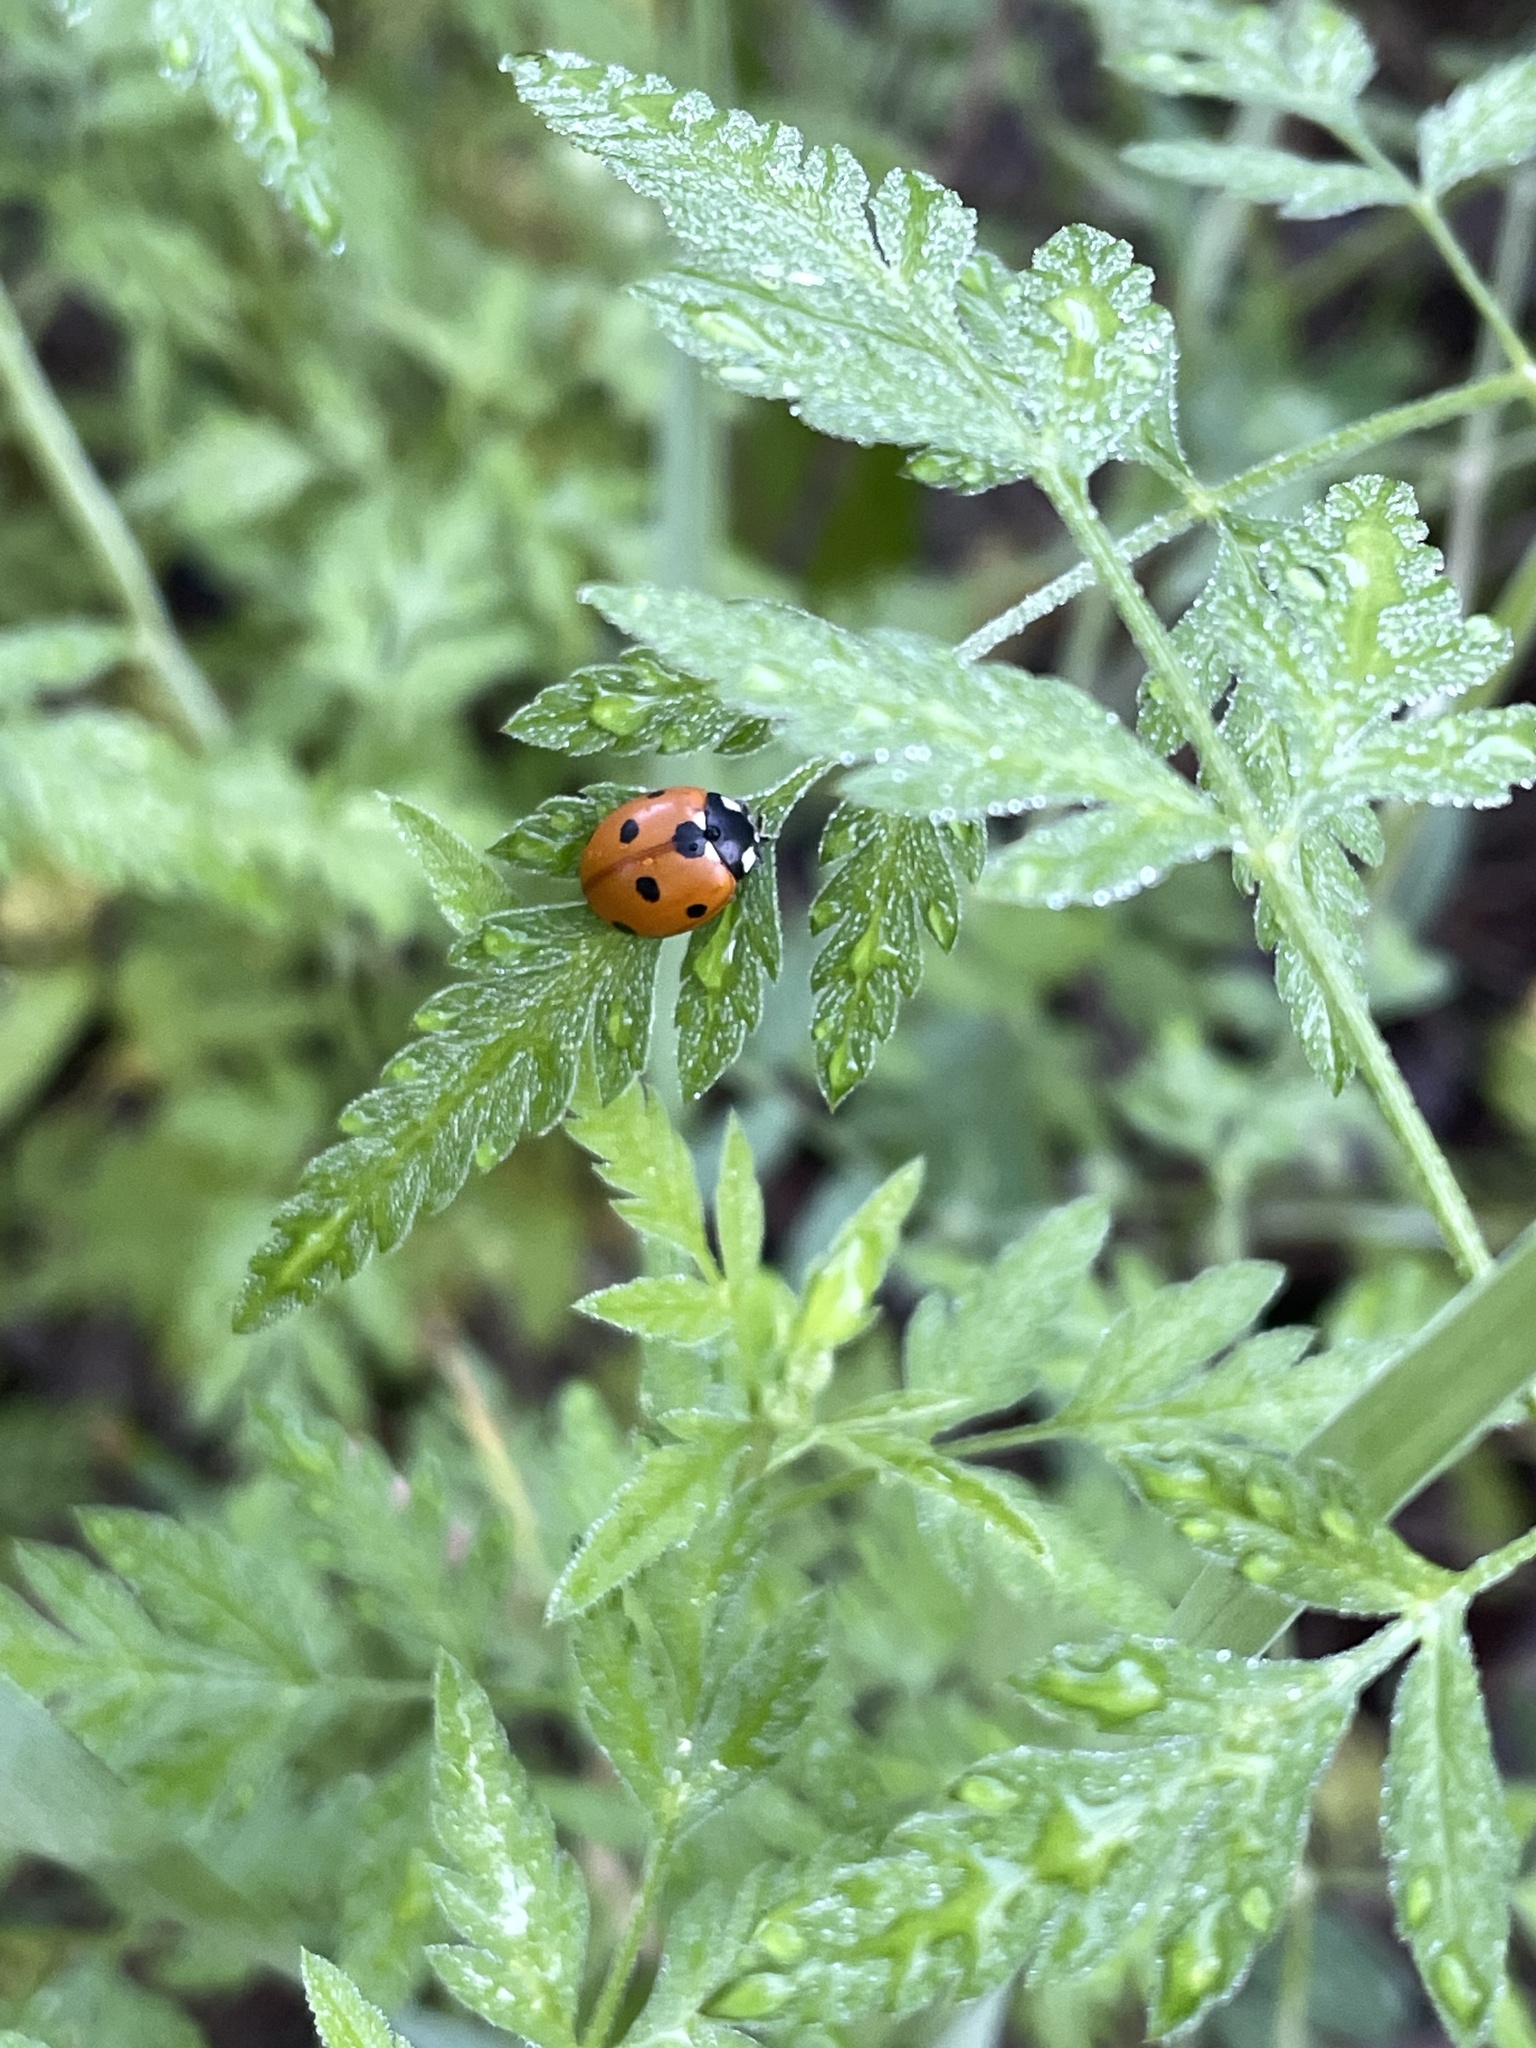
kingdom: Animalia
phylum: Arthropoda
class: Insecta
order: Coleoptera
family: Coccinellidae
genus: Coccinella
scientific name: Coccinella septempunctata
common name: Sevenspotted lady beetle
